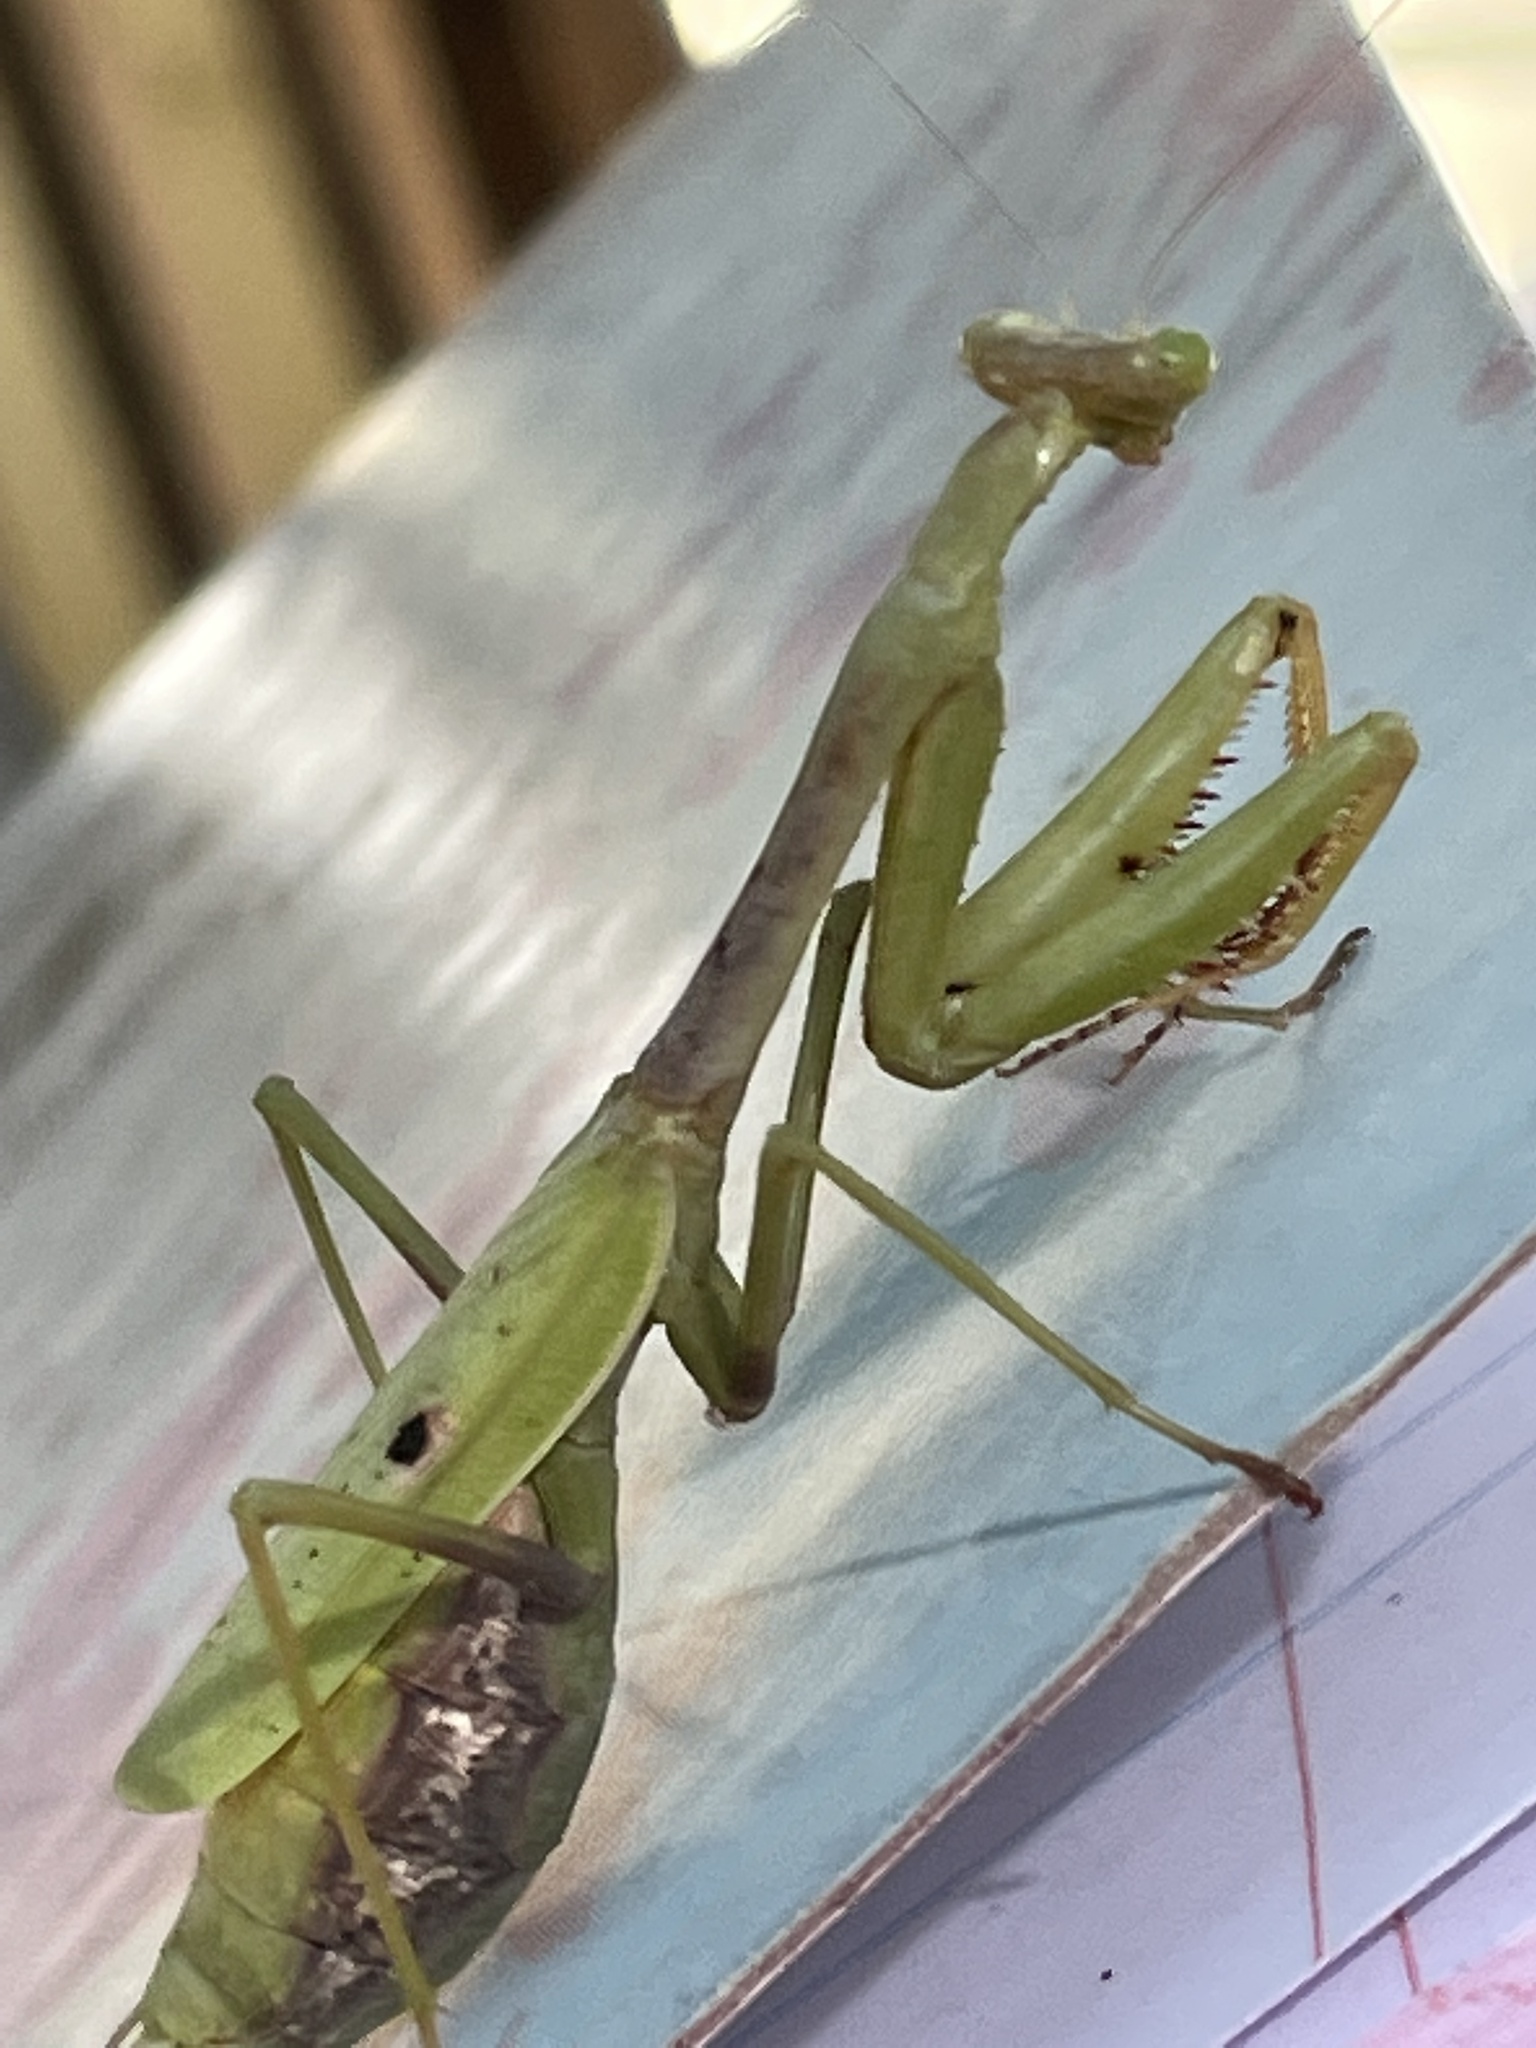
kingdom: Animalia
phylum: Arthropoda
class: Insecta
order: Mantodea
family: Mantidae
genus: Stagmomantis
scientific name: Stagmomantis carolina
